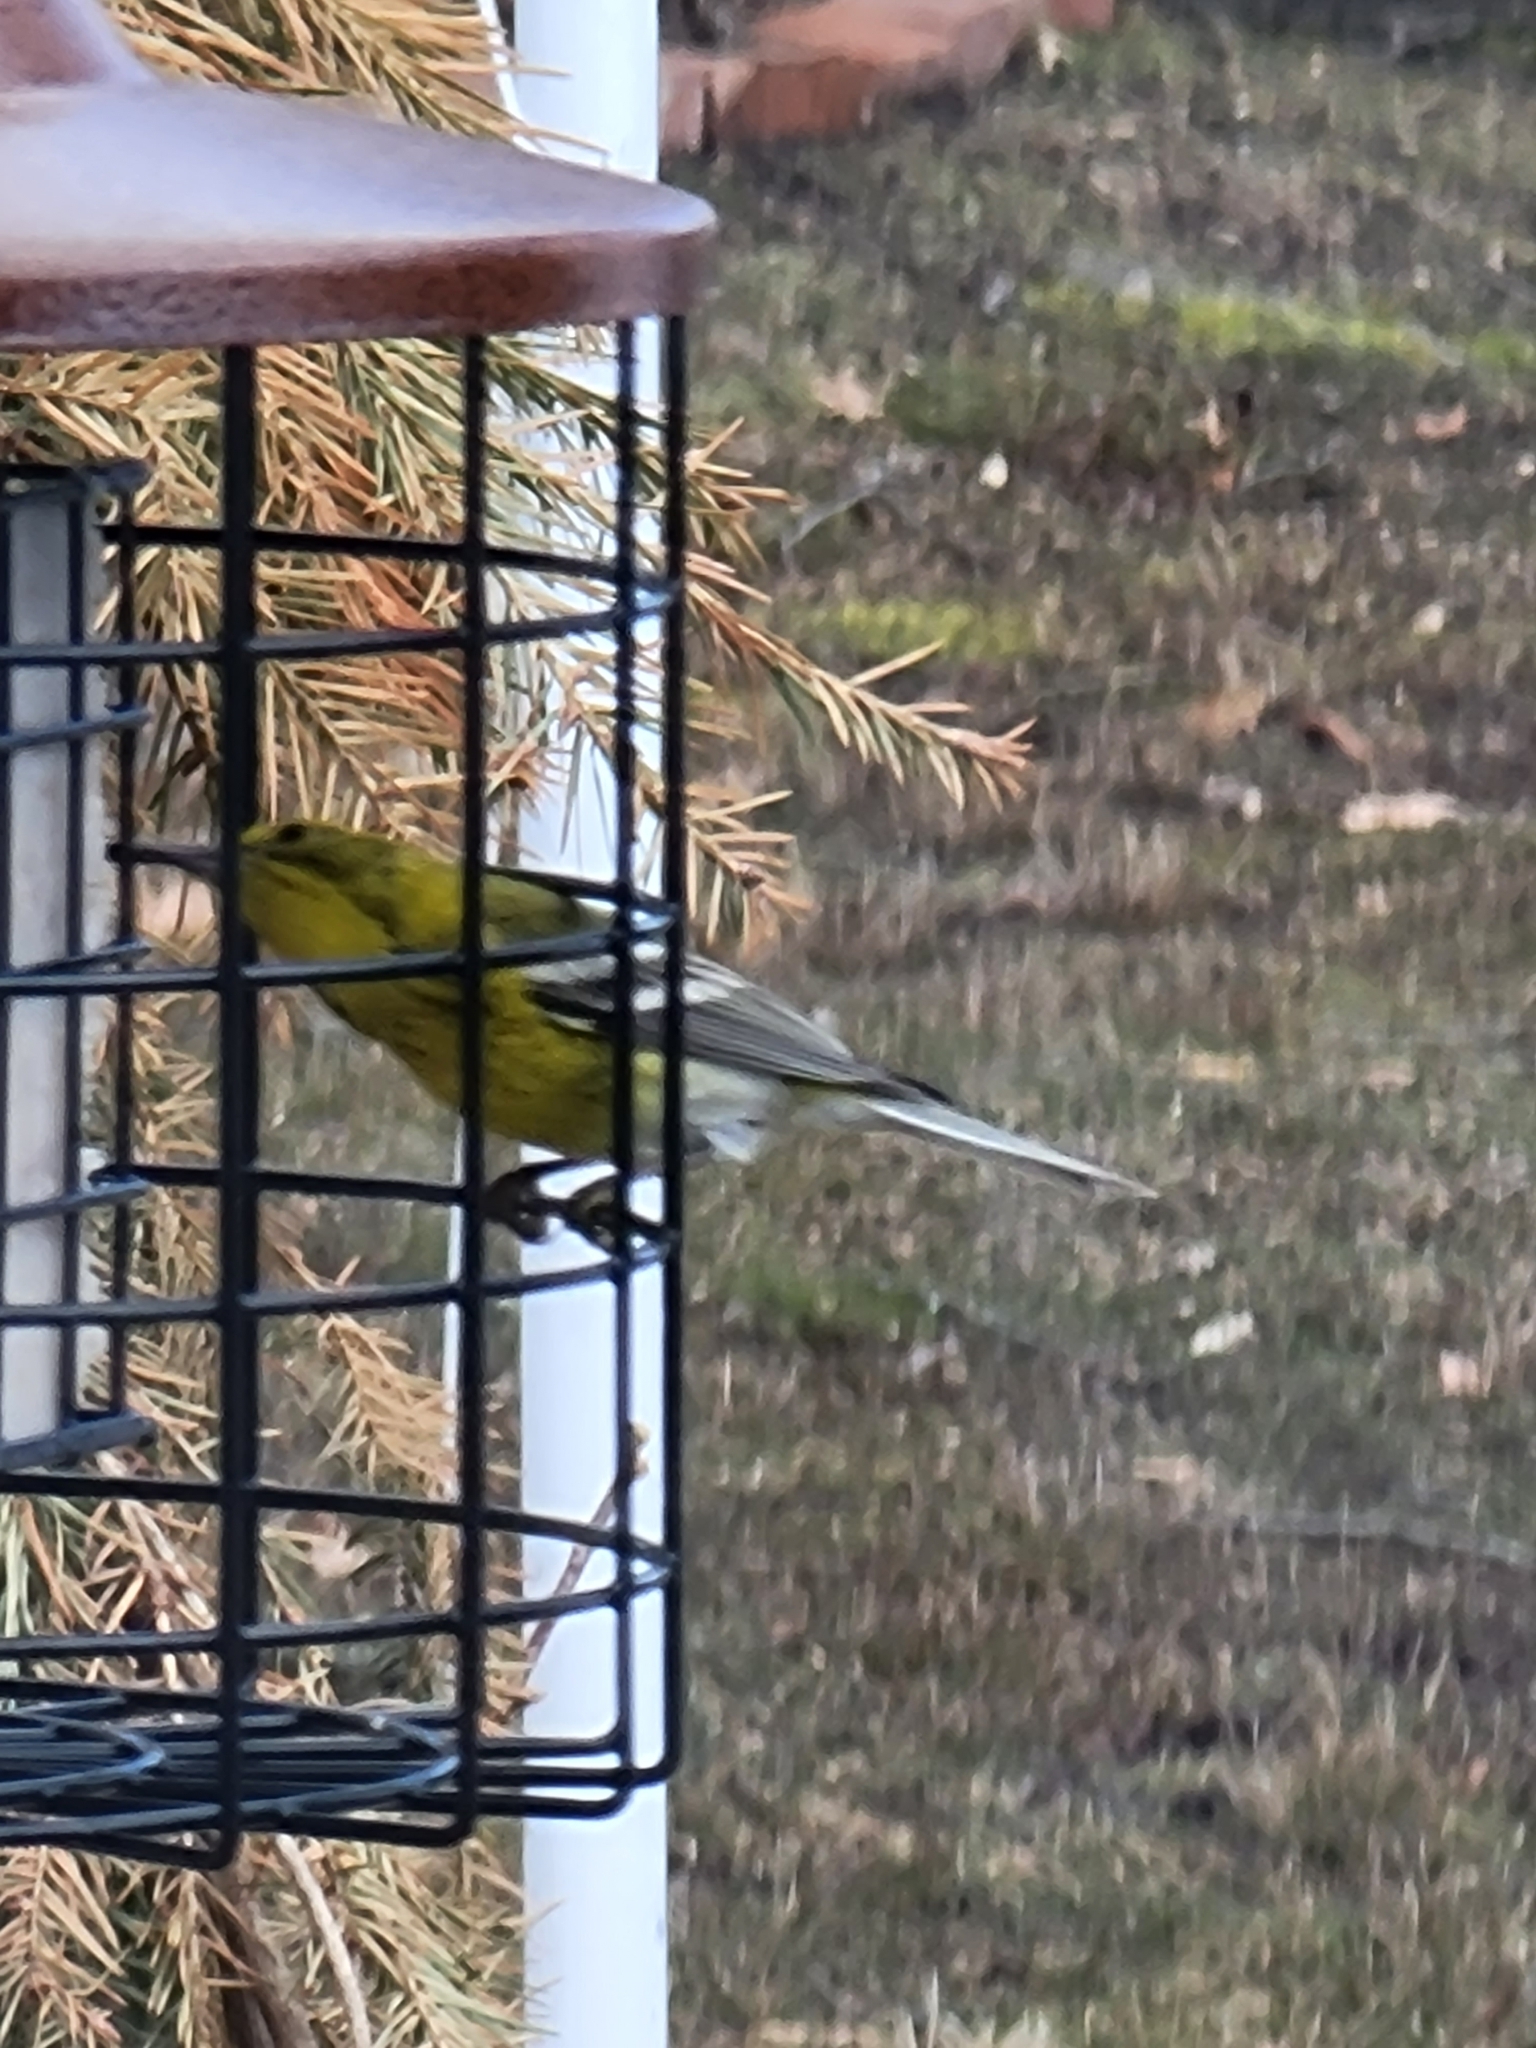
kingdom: Animalia
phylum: Chordata
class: Aves
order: Passeriformes
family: Parulidae
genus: Setophaga
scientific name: Setophaga pinus
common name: Pine warbler
